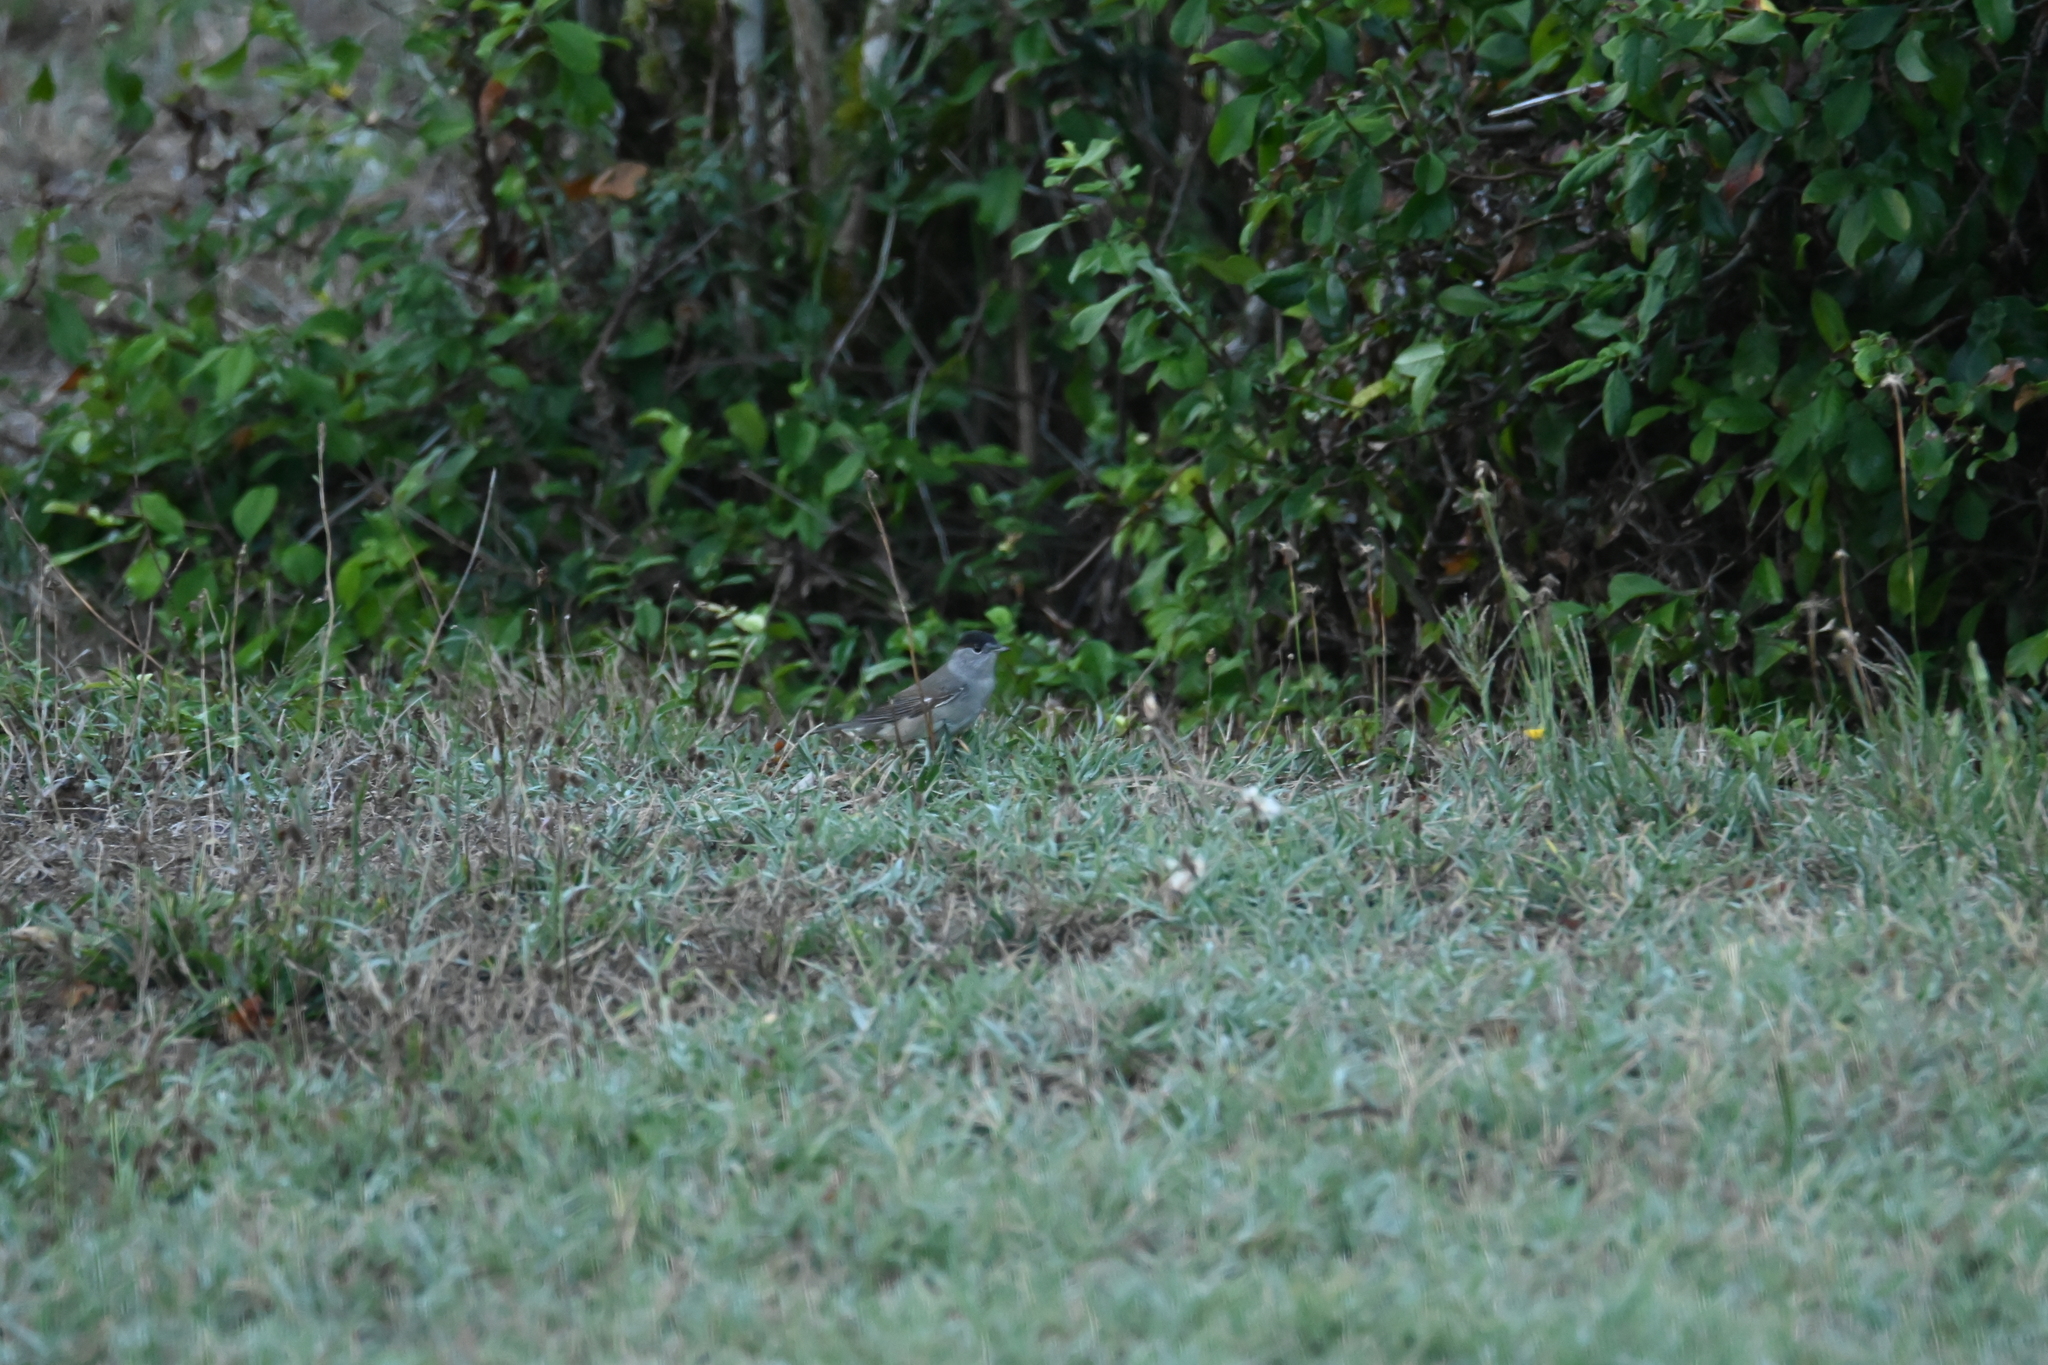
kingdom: Animalia
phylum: Chordata
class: Aves
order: Passeriformes
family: Sylviidae
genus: Sylvia
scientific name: Sylvia atricapilla
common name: Eurasian blackcap
